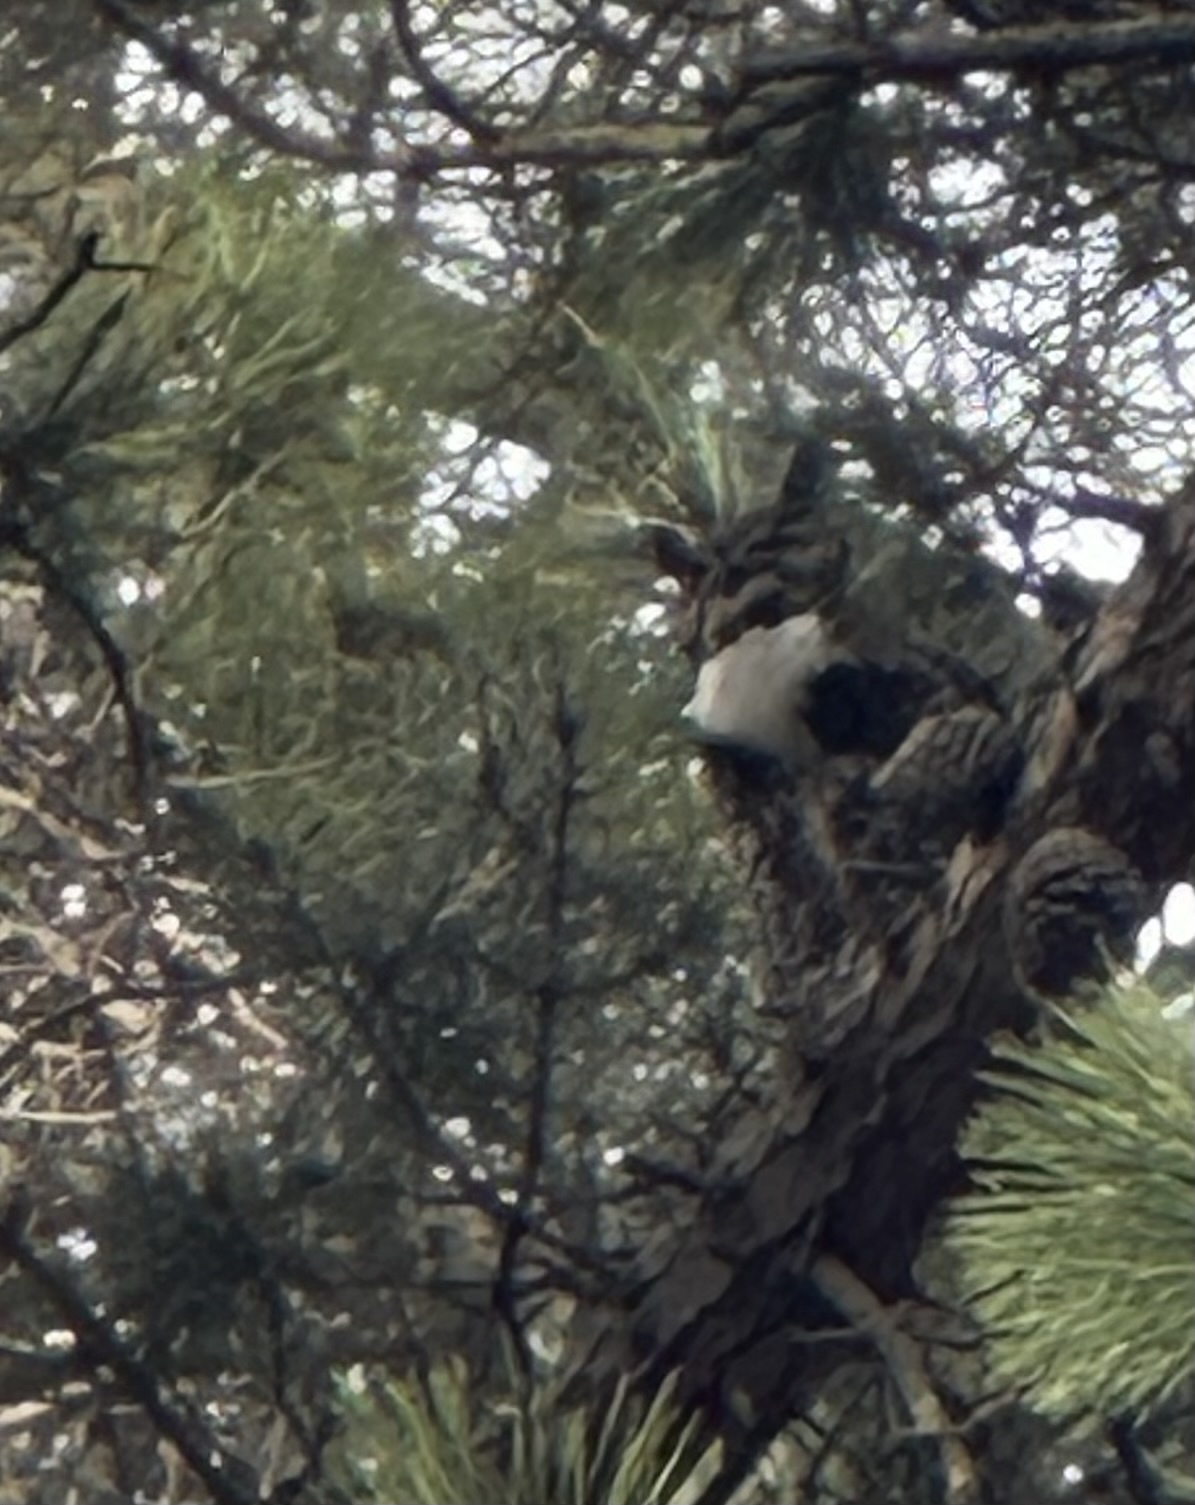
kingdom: Animalia
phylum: Chordata
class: Aves
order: Strigiformes
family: Strigidae
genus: Bubo
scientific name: Bubo virginianus
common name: Great horned owl
